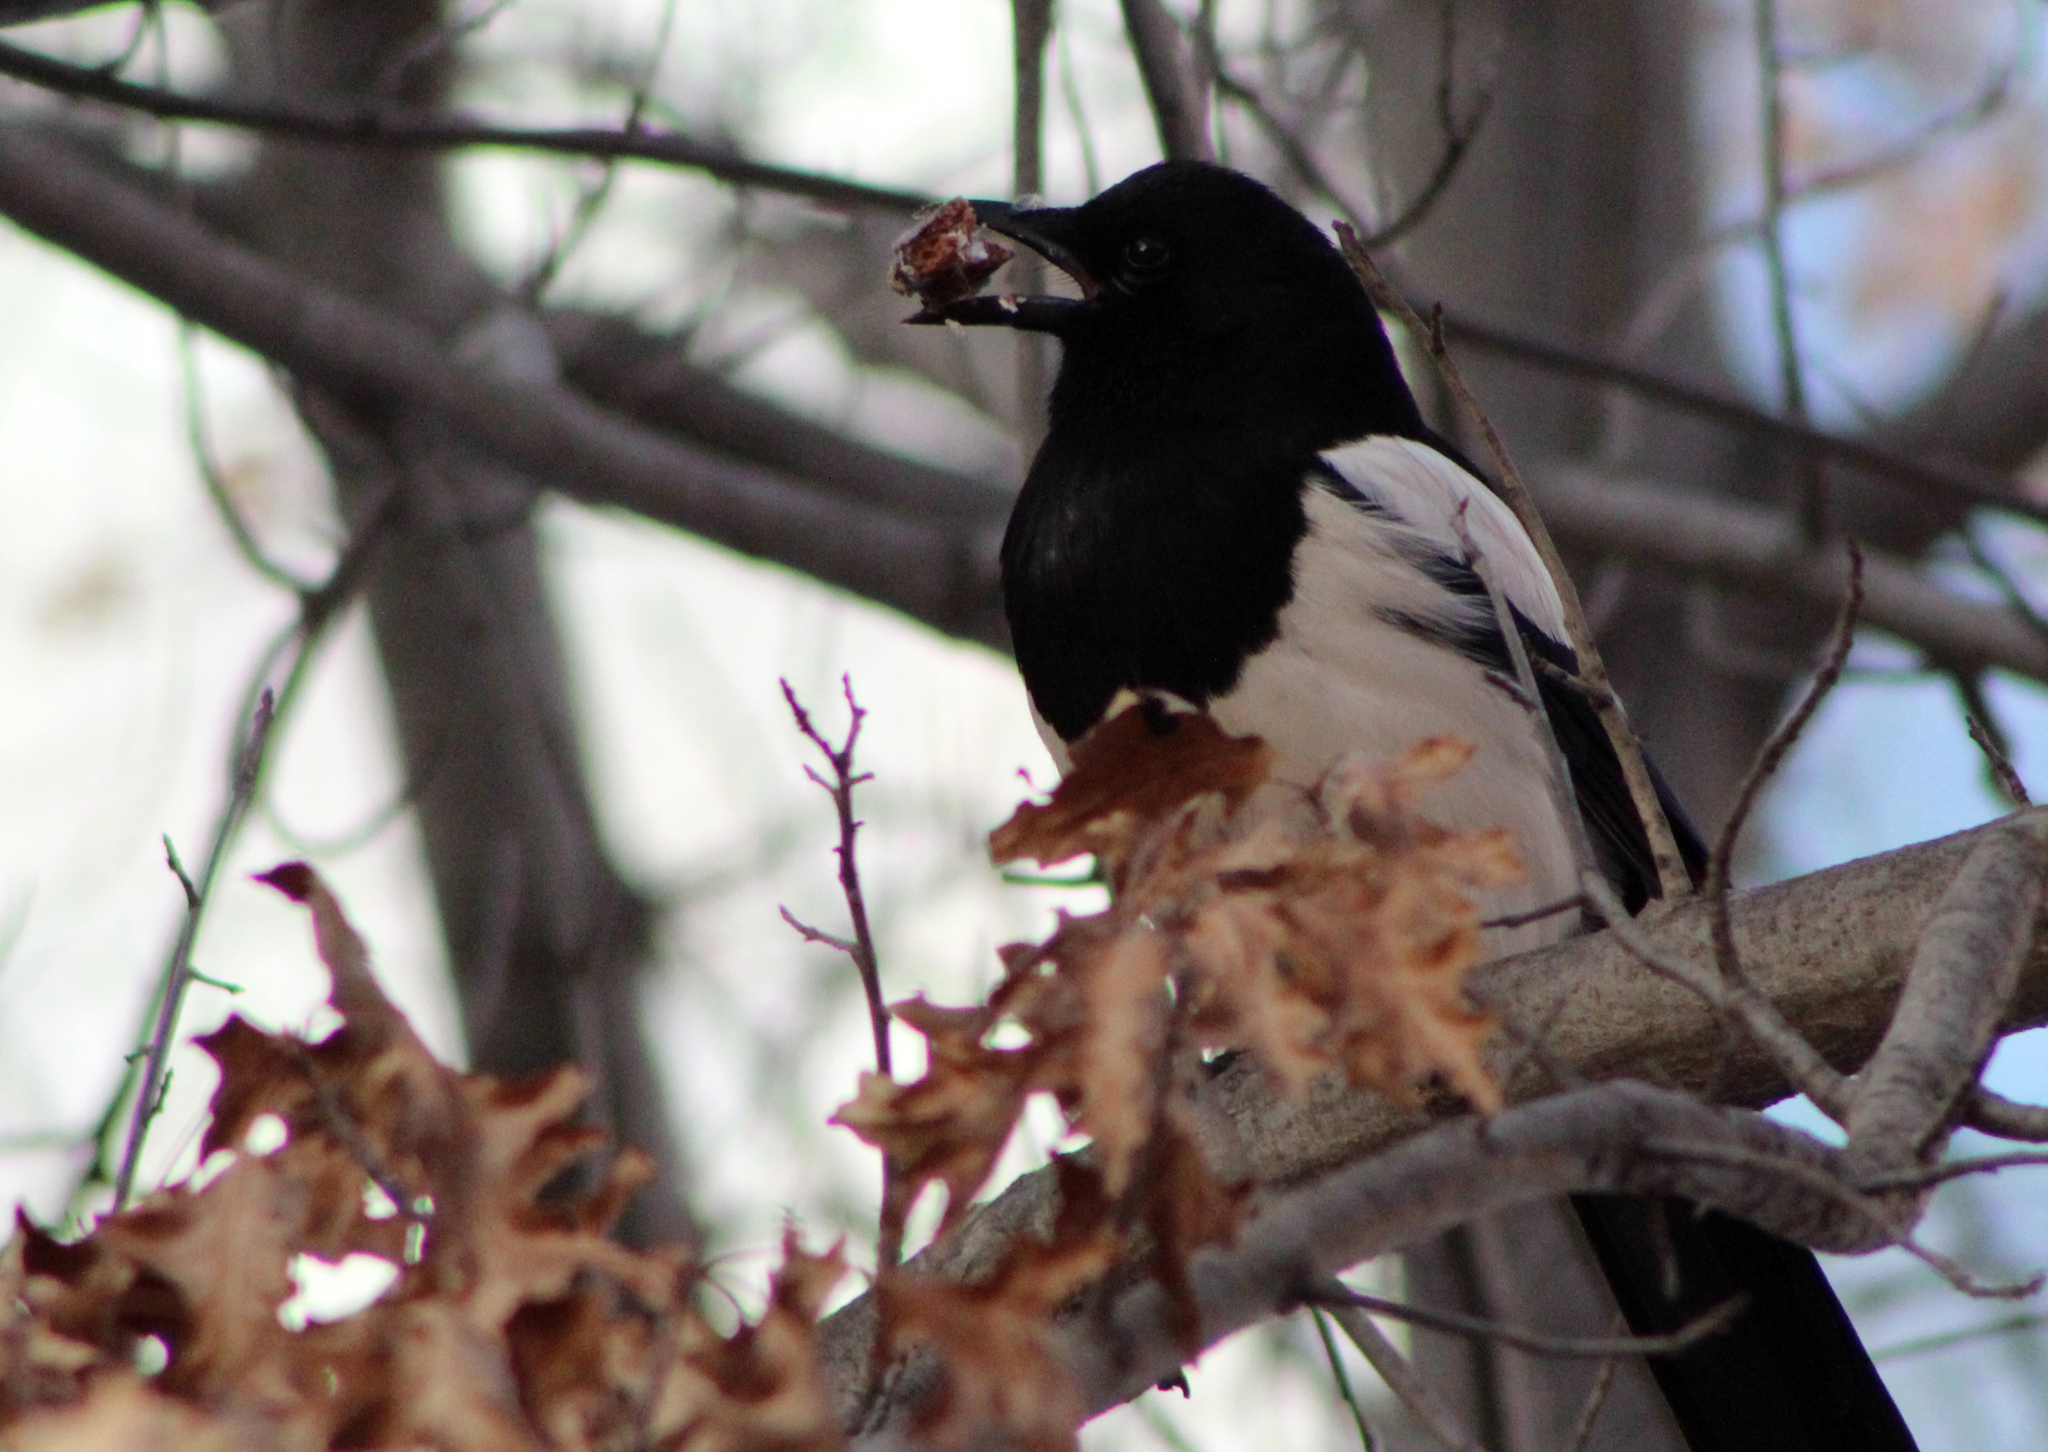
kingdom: Animalia
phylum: Chordata
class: Aves
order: Passeriformes
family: Corvidae
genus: Pica
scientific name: Pica serica
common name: Oriental magpie
